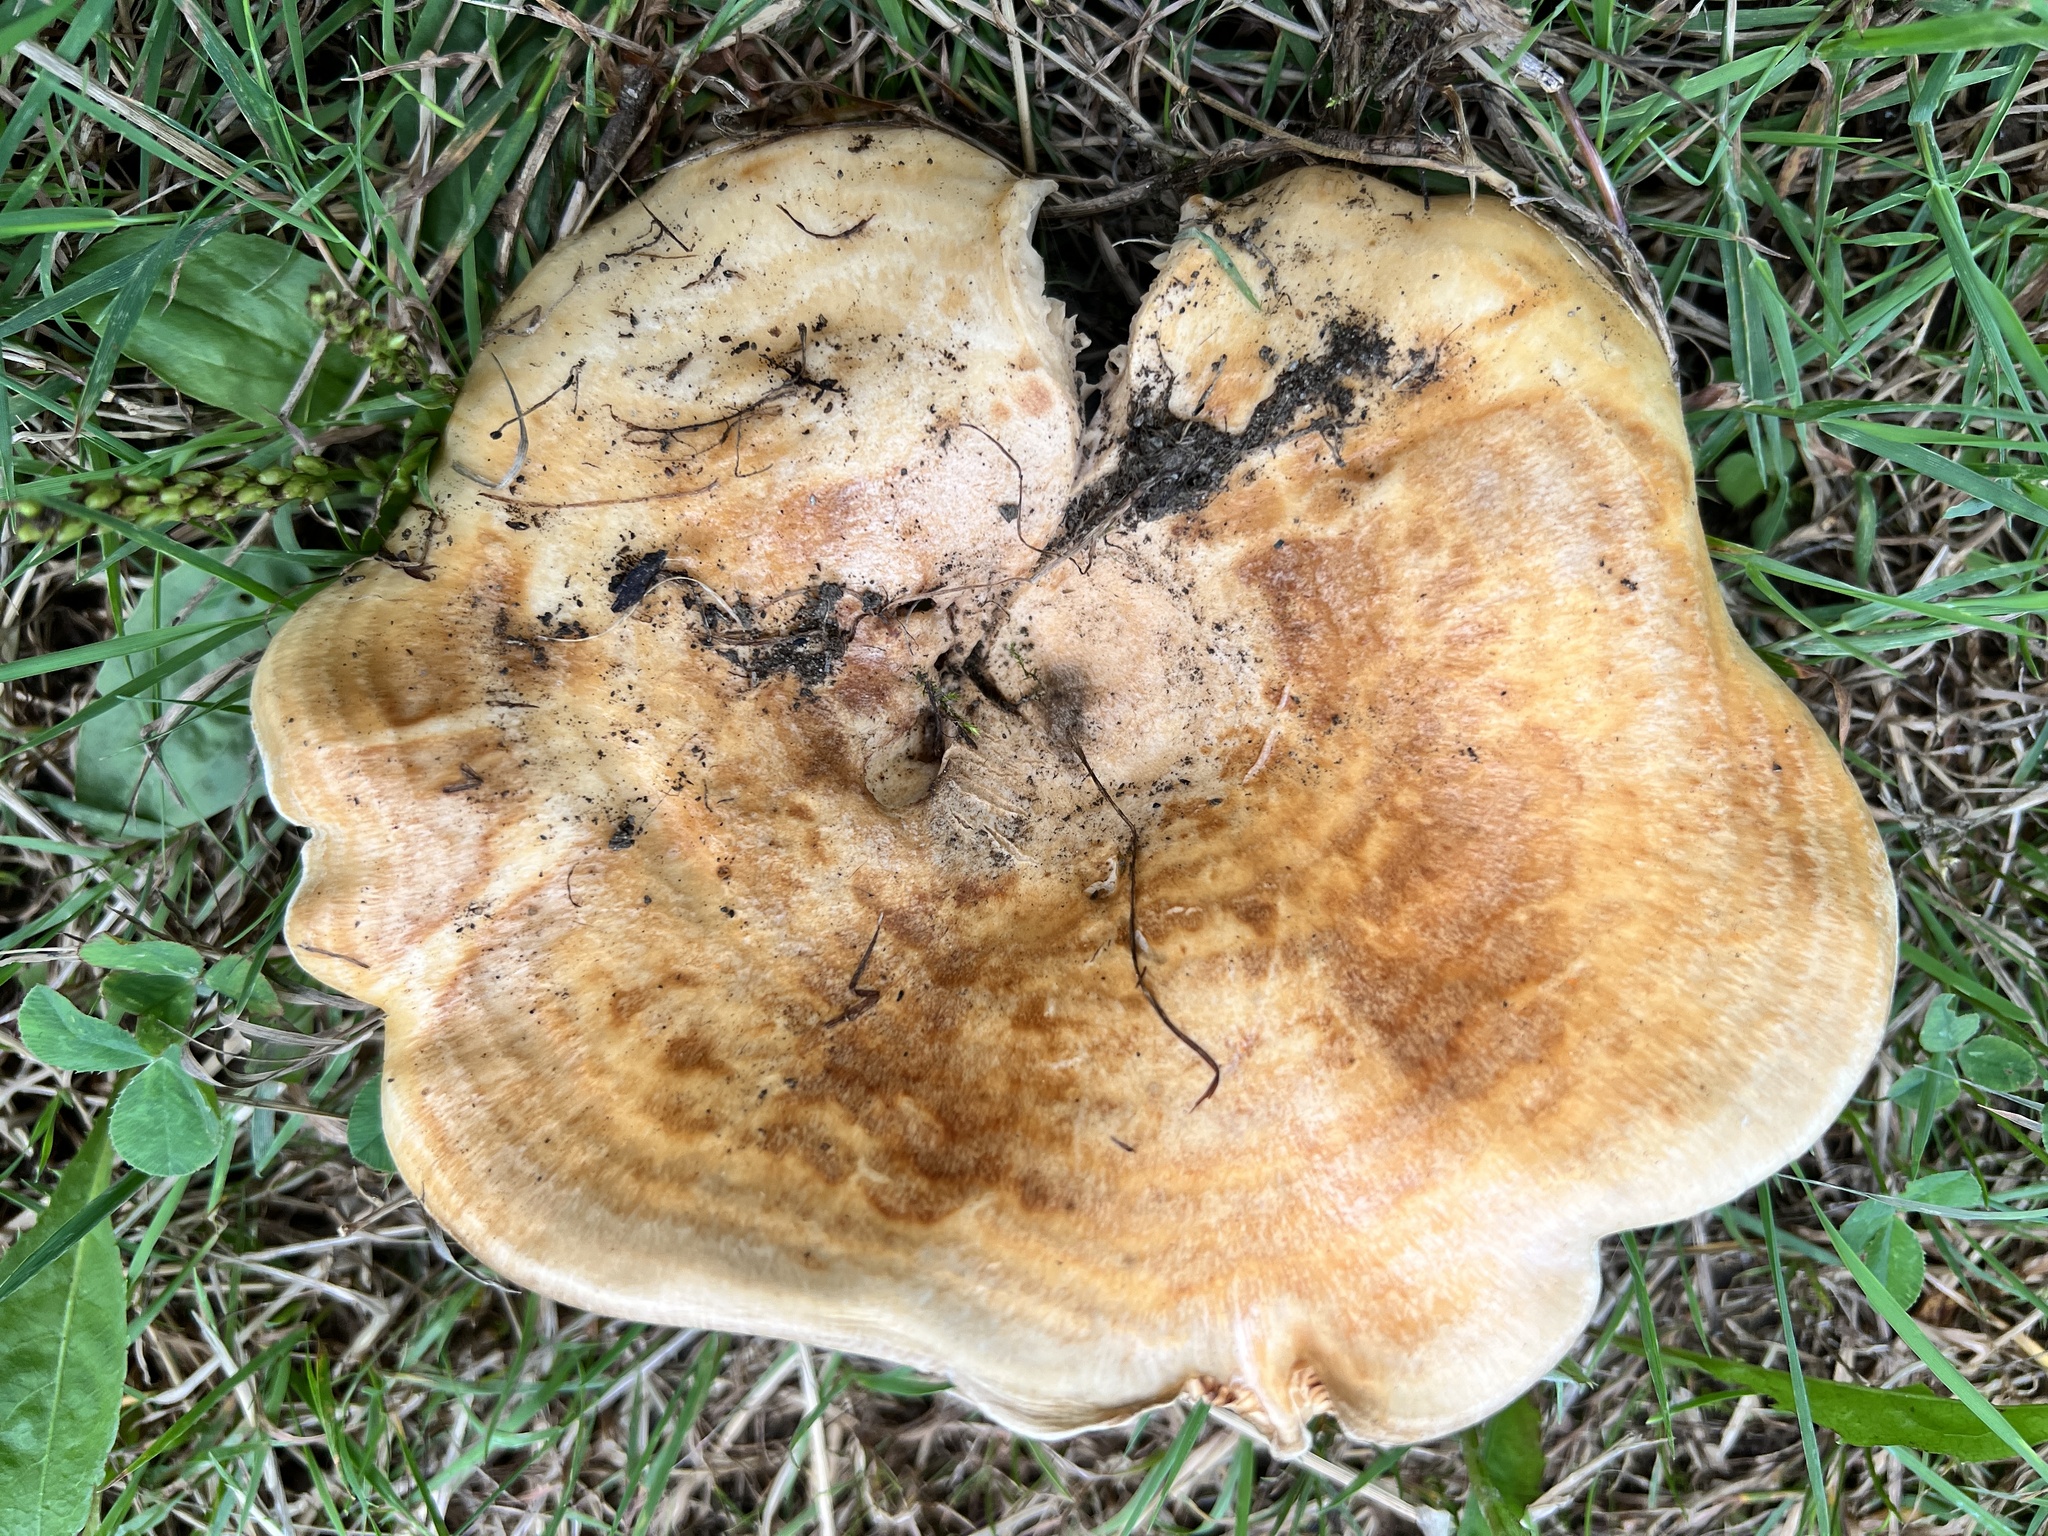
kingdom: Fungi
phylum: Basidiomycota
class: Agaricomycetes
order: Russulales
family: Russulaceae
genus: Lactarius
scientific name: Lactarius psammicola
